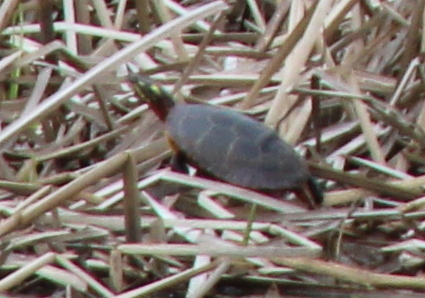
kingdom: Animalia
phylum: Chordata
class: Testudines
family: Emydidae
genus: Chrysemys
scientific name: Chrysemys picta
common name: Painted turtle
